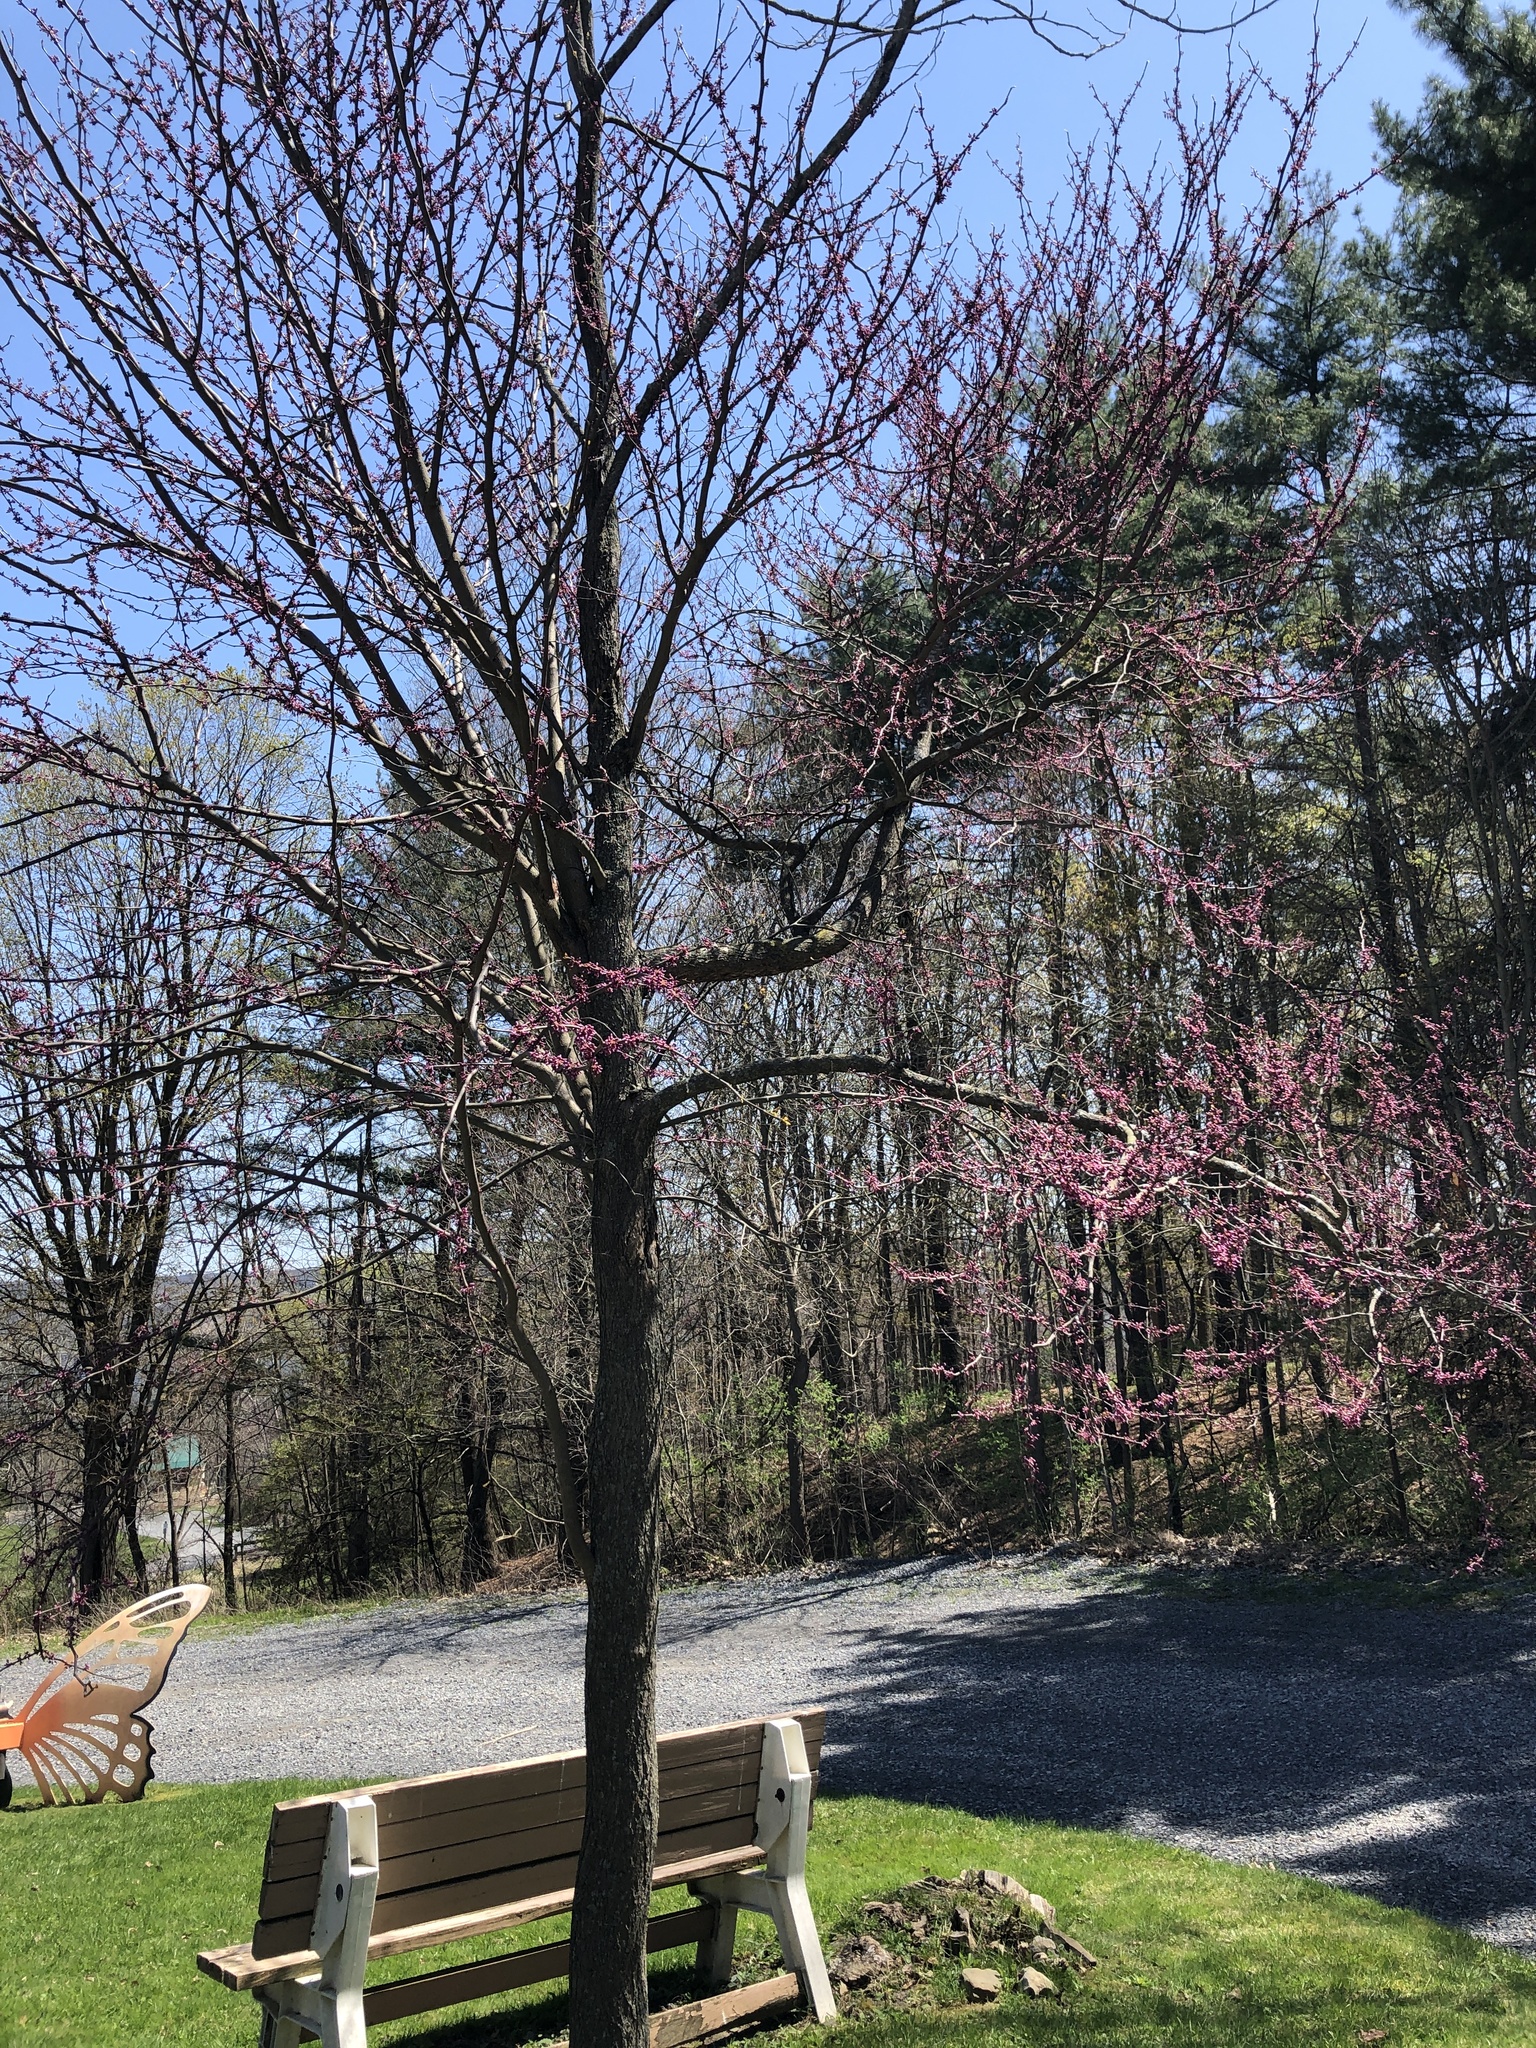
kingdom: Plantae
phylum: Tracheophyta
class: Magnoliopsida
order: Fabales
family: Fabaceae
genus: Cercis
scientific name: Cercis canadensis
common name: Eastern redbud
